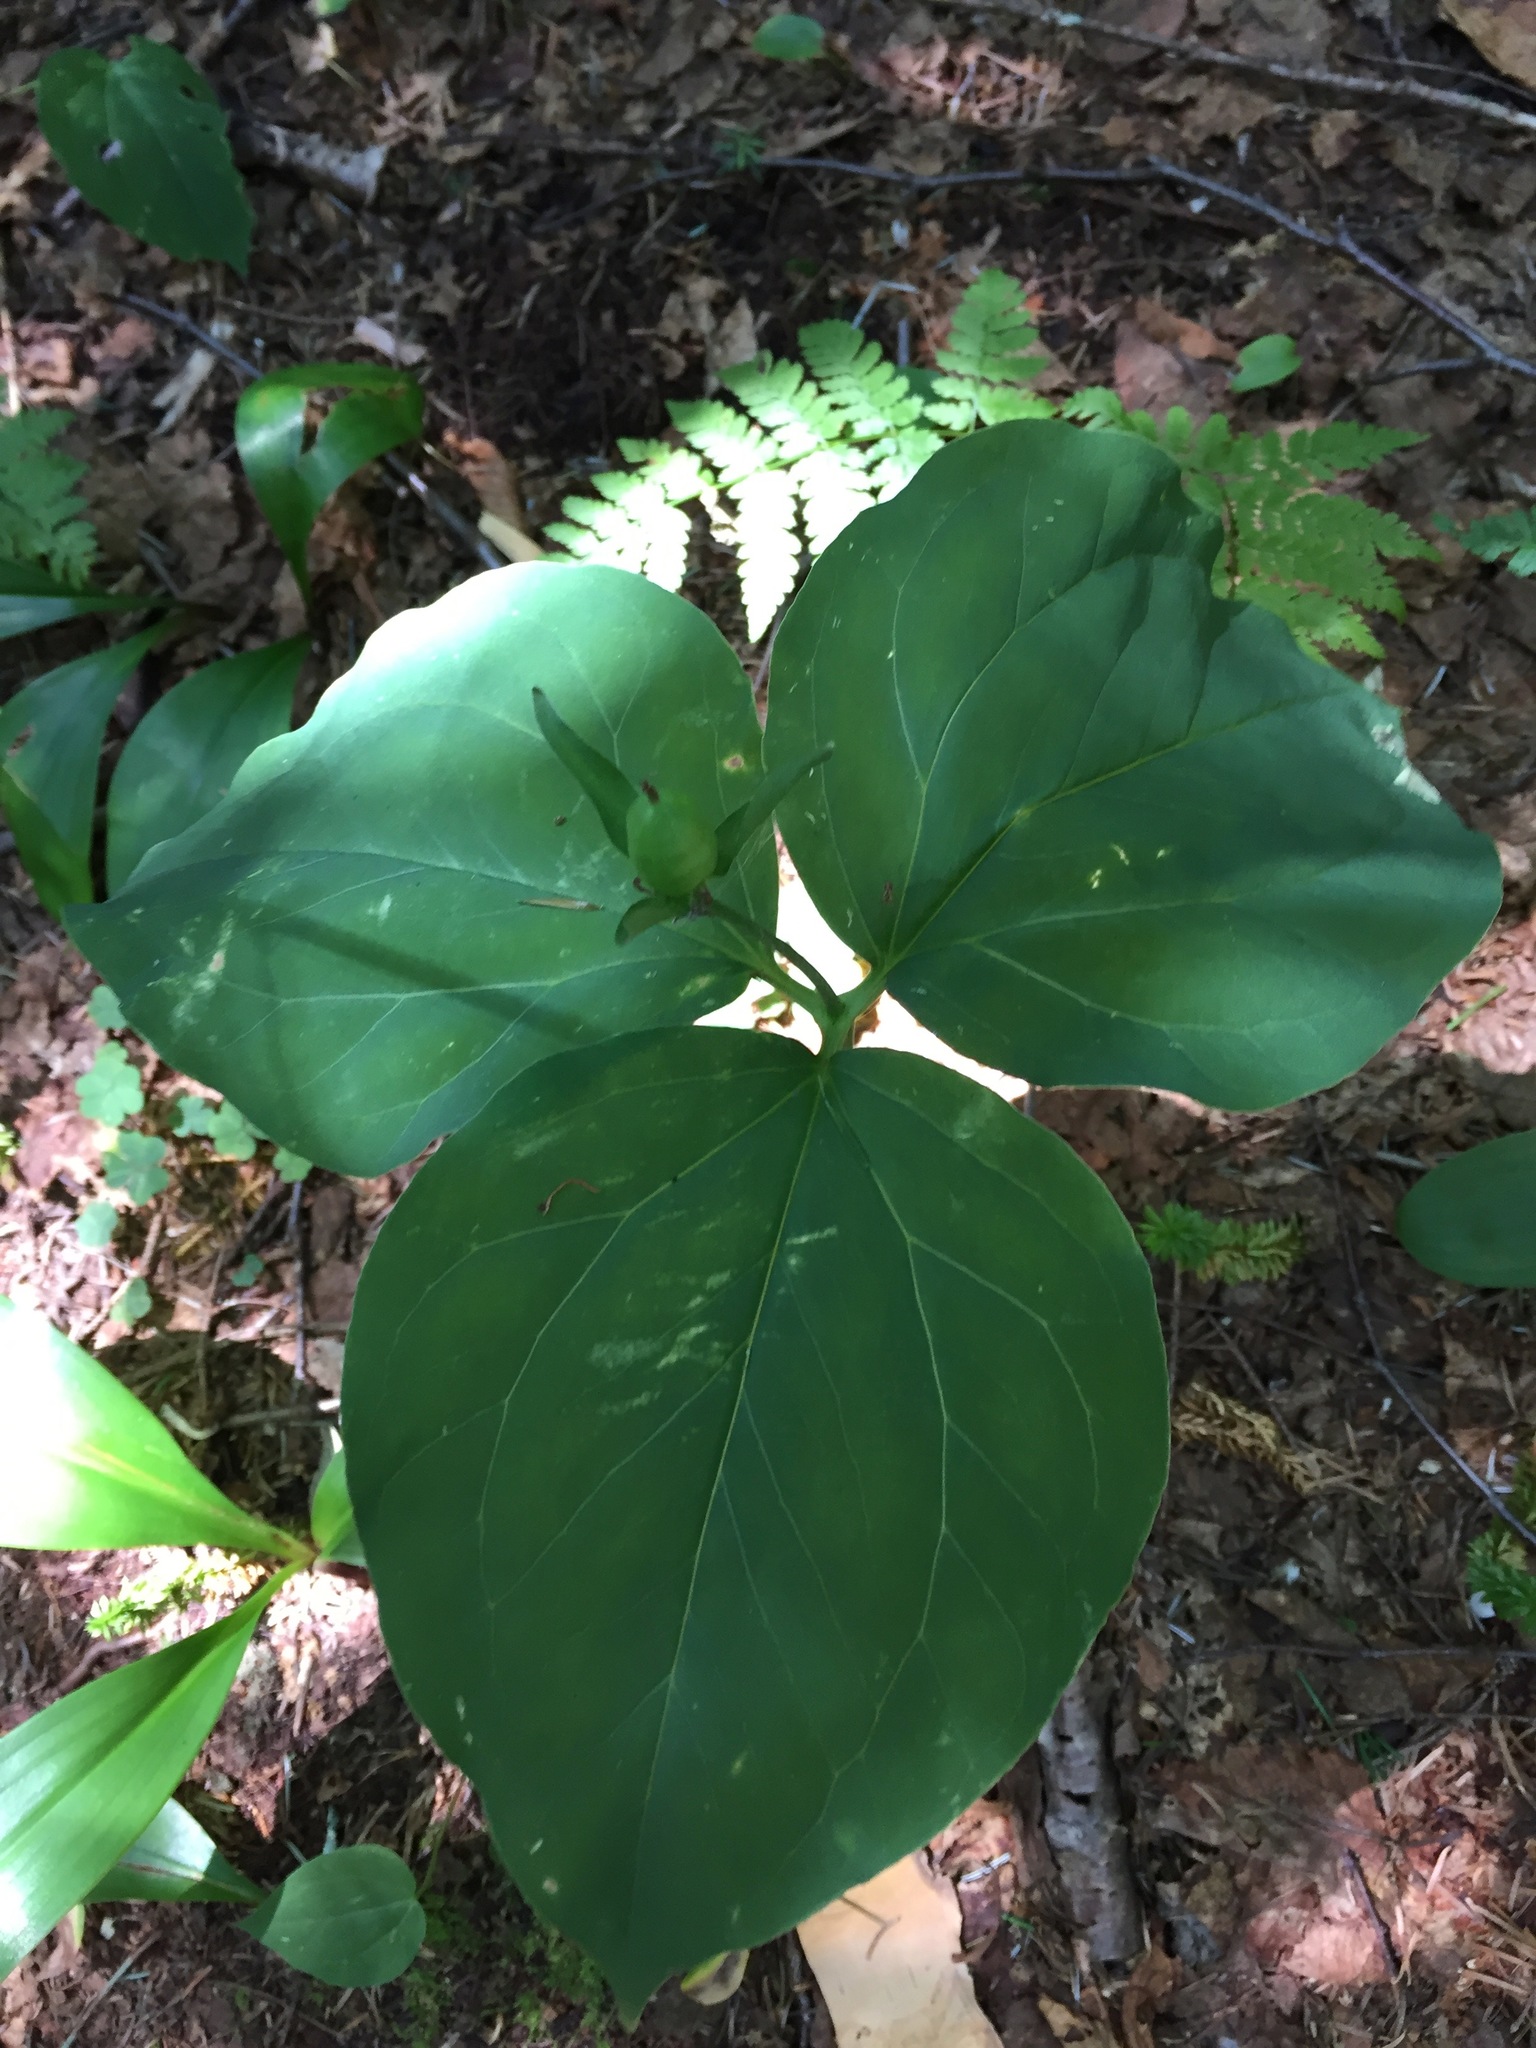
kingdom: Plantae
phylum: Tracheophyta
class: Liliopsida
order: Liliales
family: Melanthiaceae
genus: Trillium
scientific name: Trillium undulatum
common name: Paint trillium
